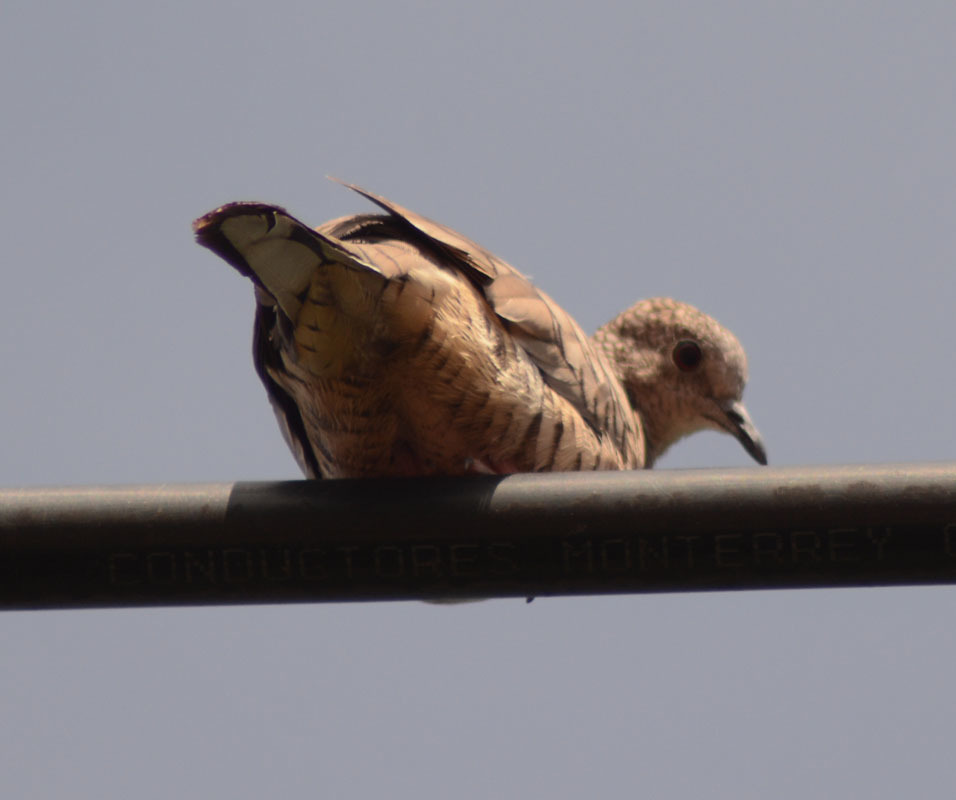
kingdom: Animalia
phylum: Chordata
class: Aves
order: Columbiformes
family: Columbidae
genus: Columbina
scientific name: Columbina inca
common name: Inca dove
